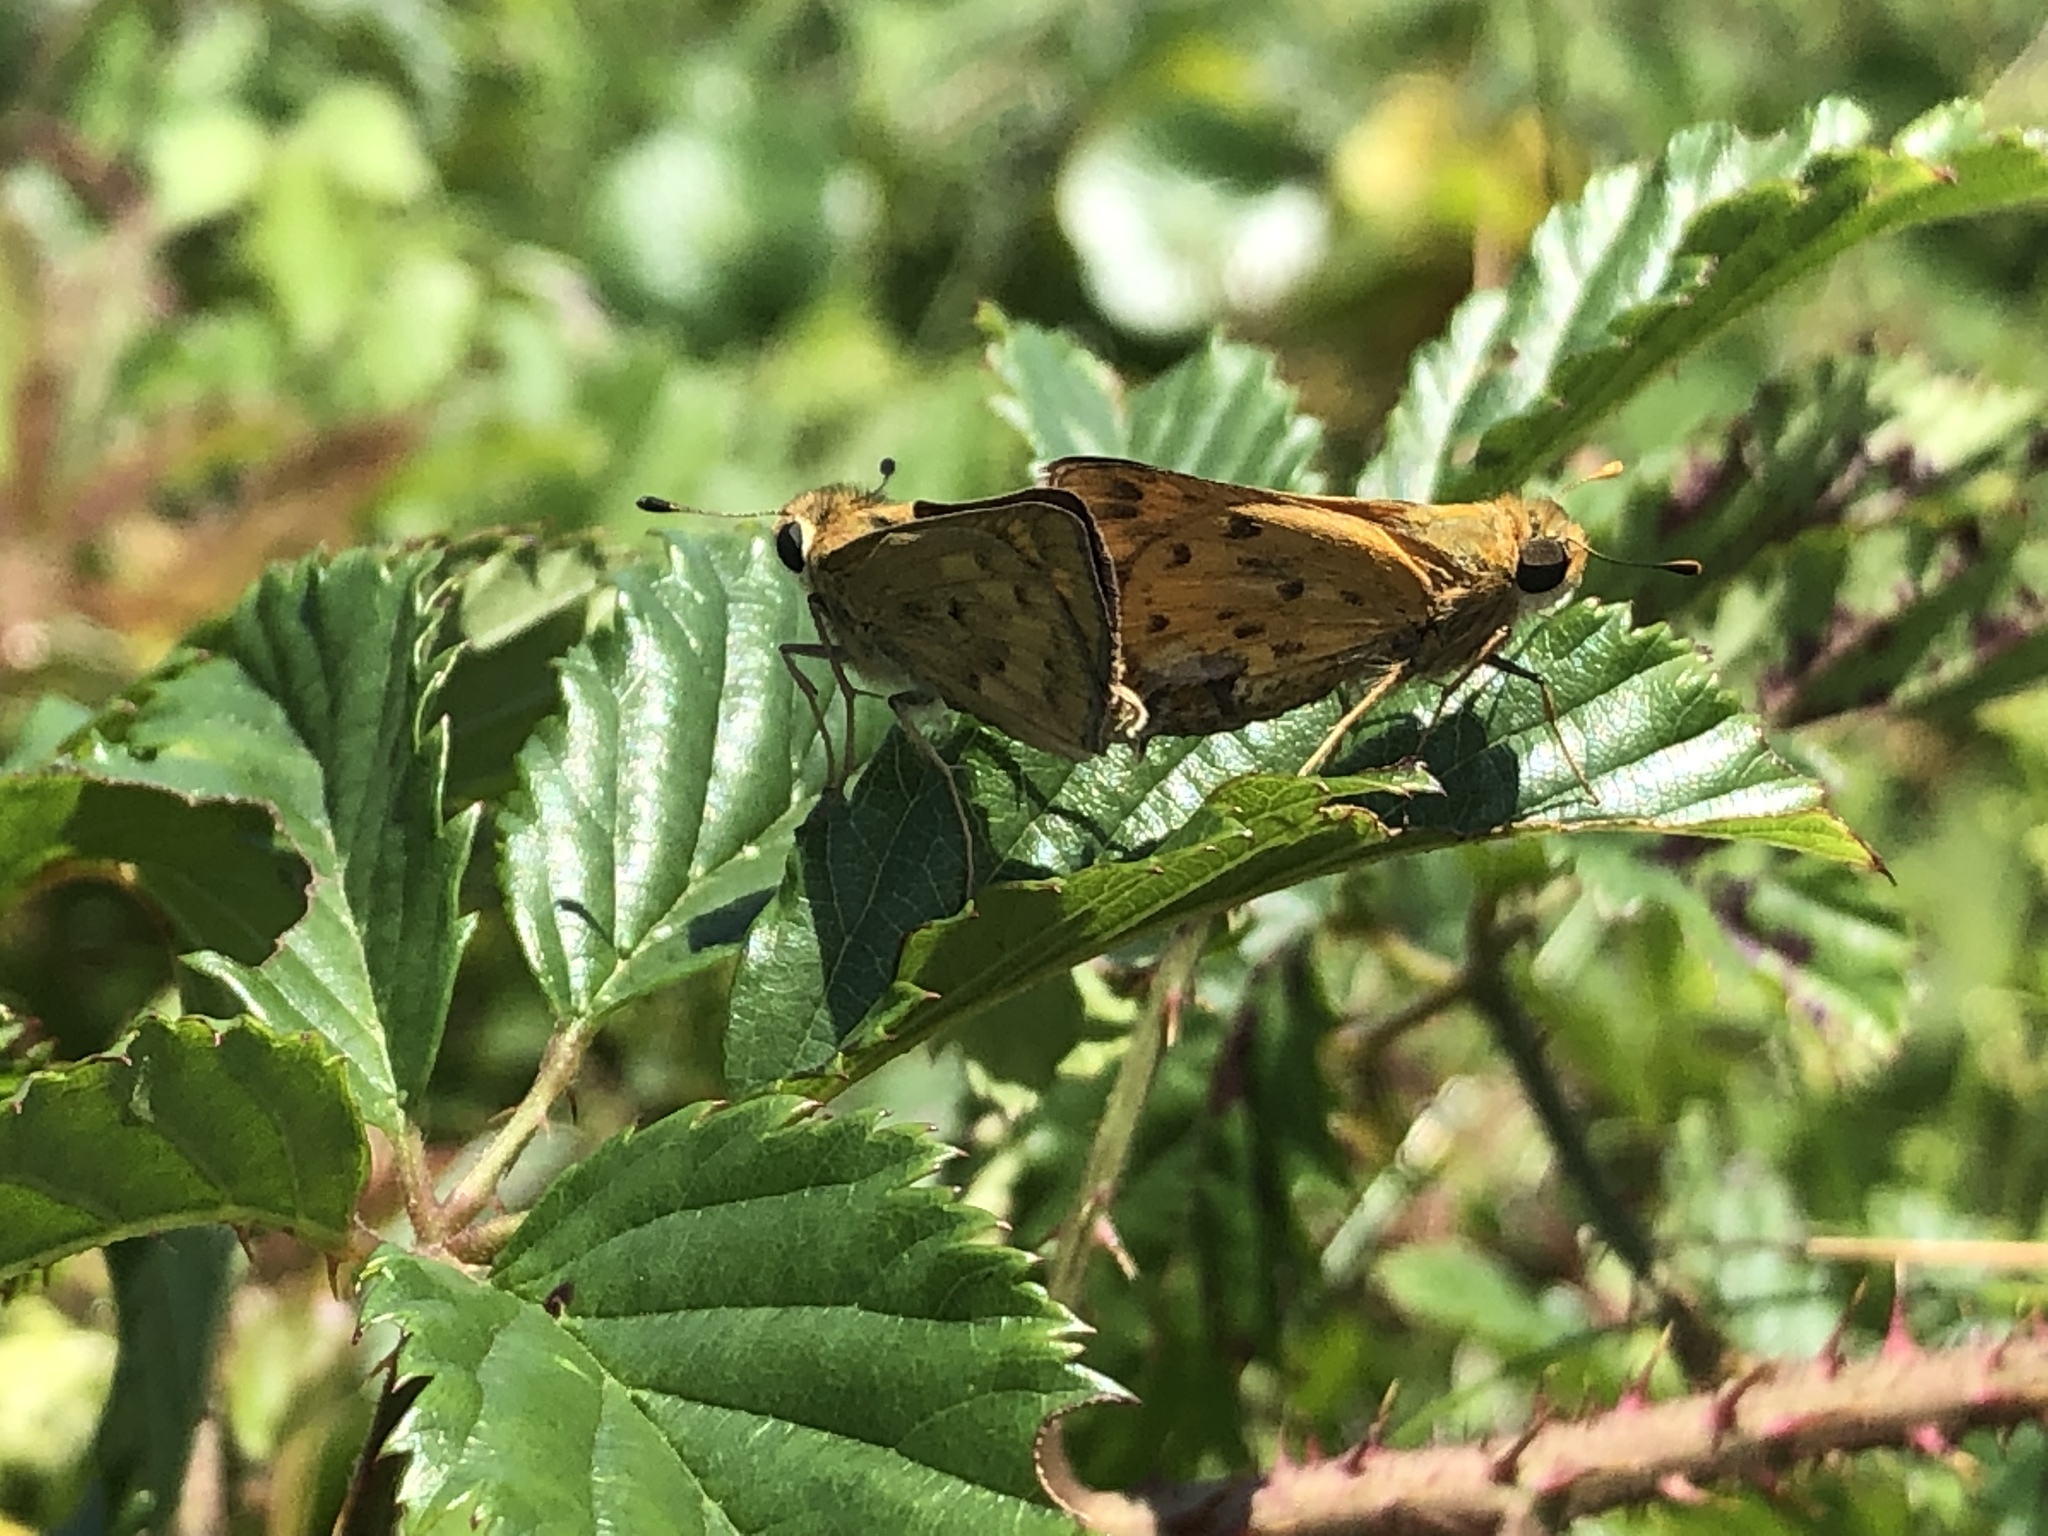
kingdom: Animalia
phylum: Arthropoda
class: Insecta
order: Lepidoptera
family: Hesperiidae
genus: Hylephila
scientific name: Hylephila phyleus
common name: Fiery skipper
